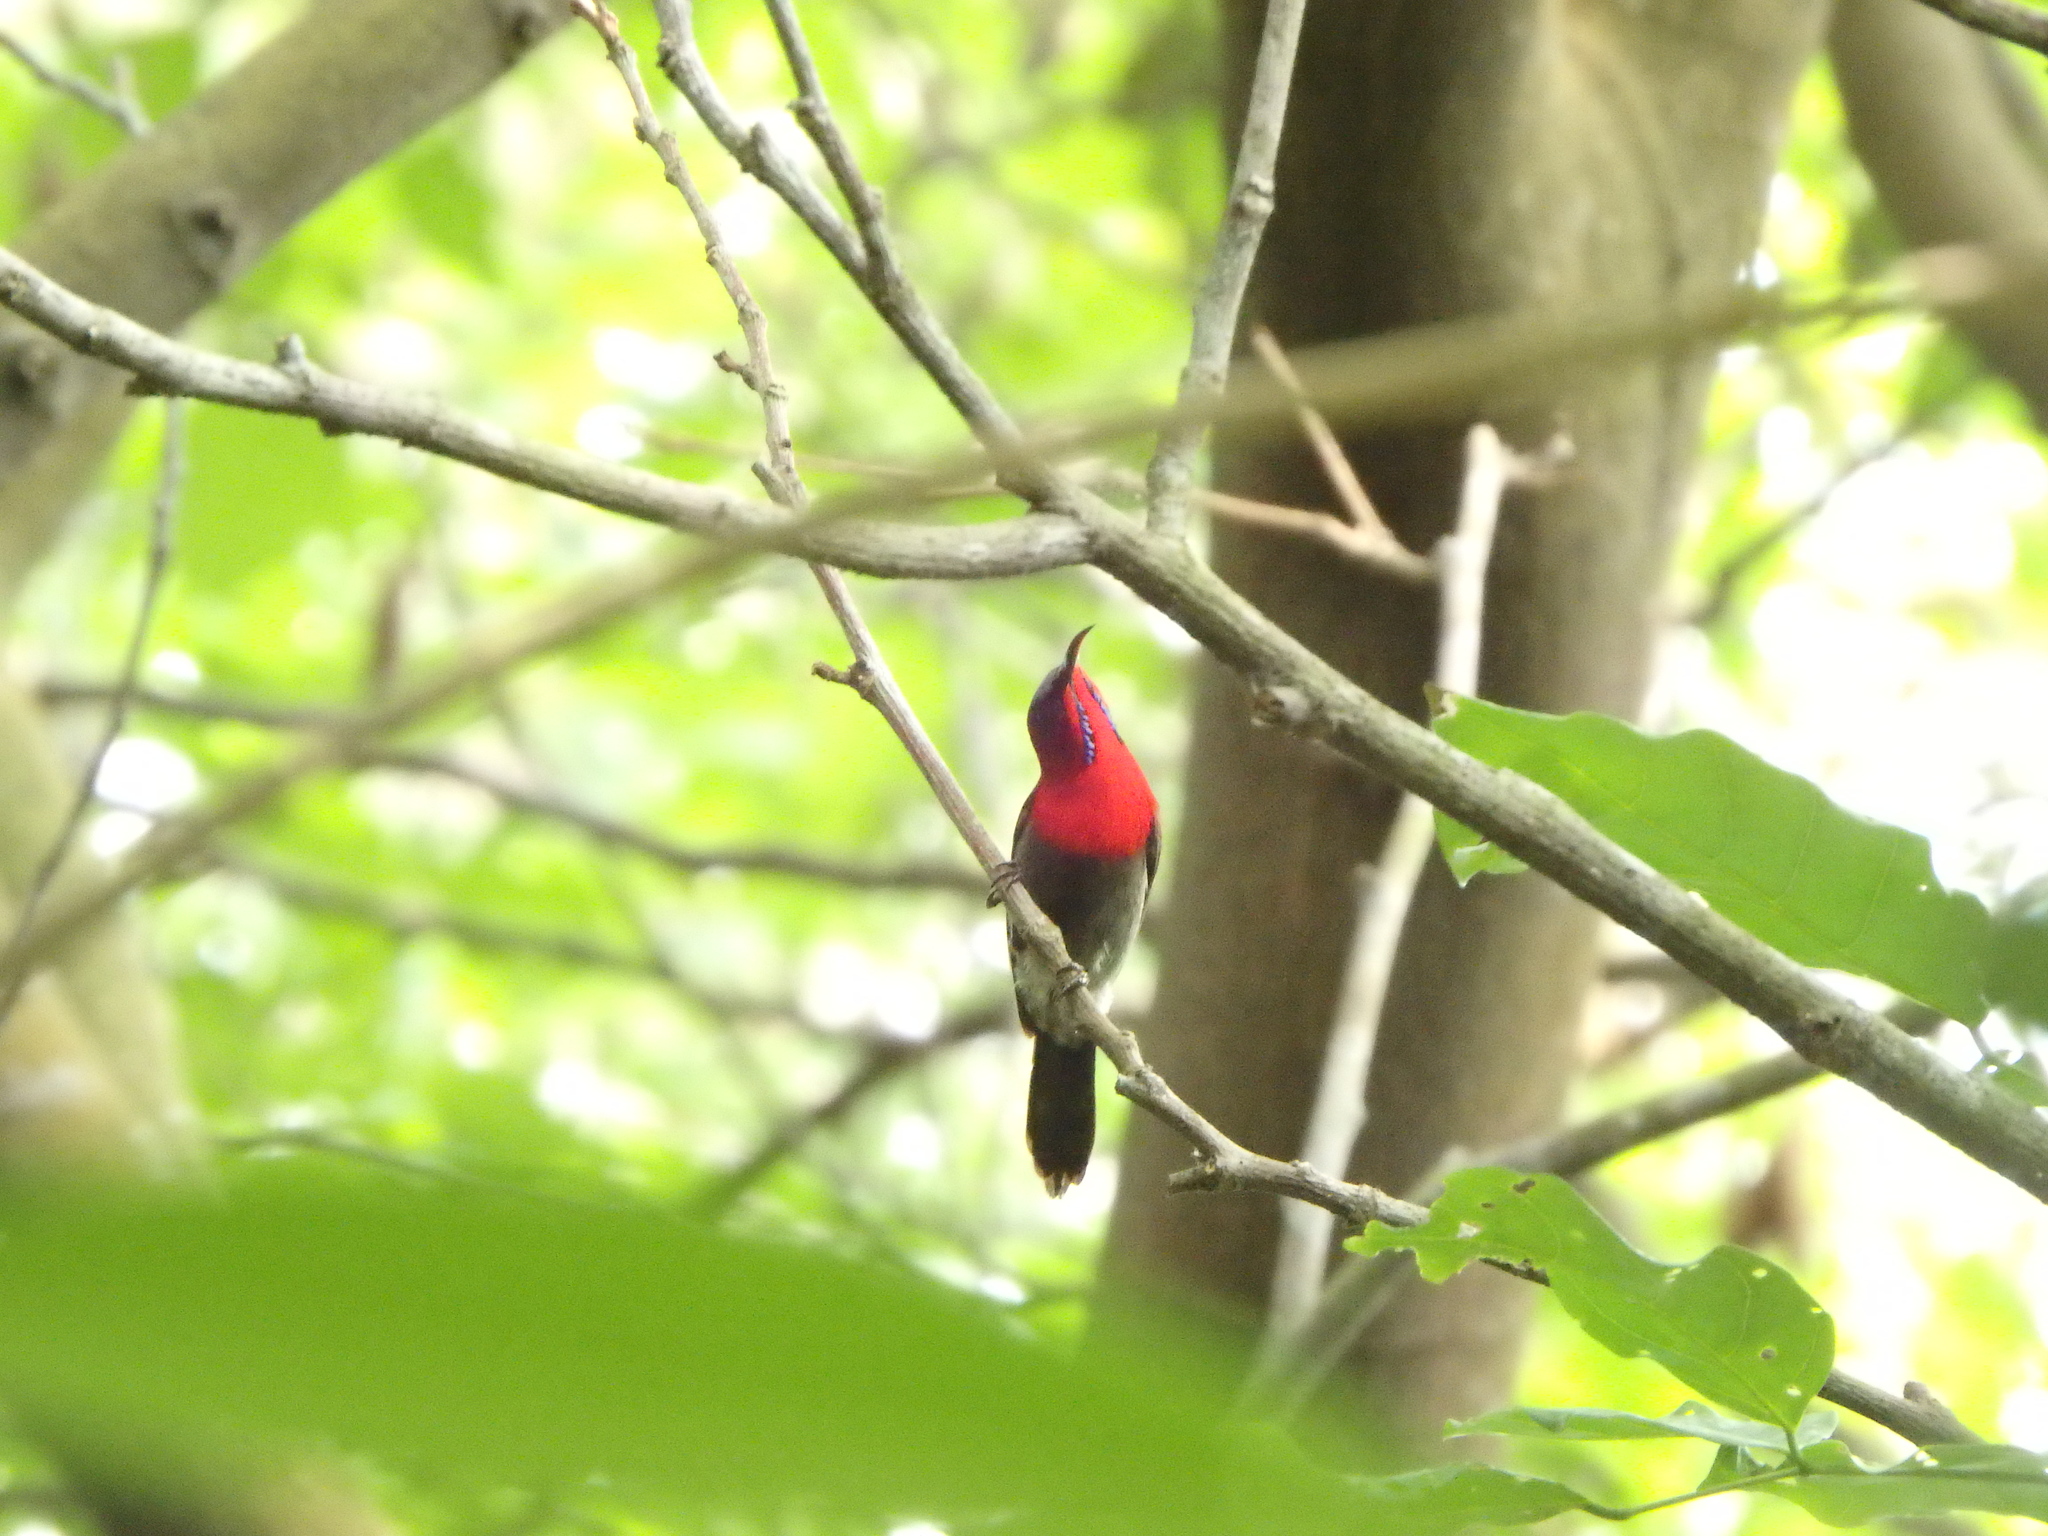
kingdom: Animalia
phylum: Chordata
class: Aves
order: Passeriformes
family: Nectariniidae
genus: Aethopyga
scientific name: Aethopyga siparaja
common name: Crimson sunbird
